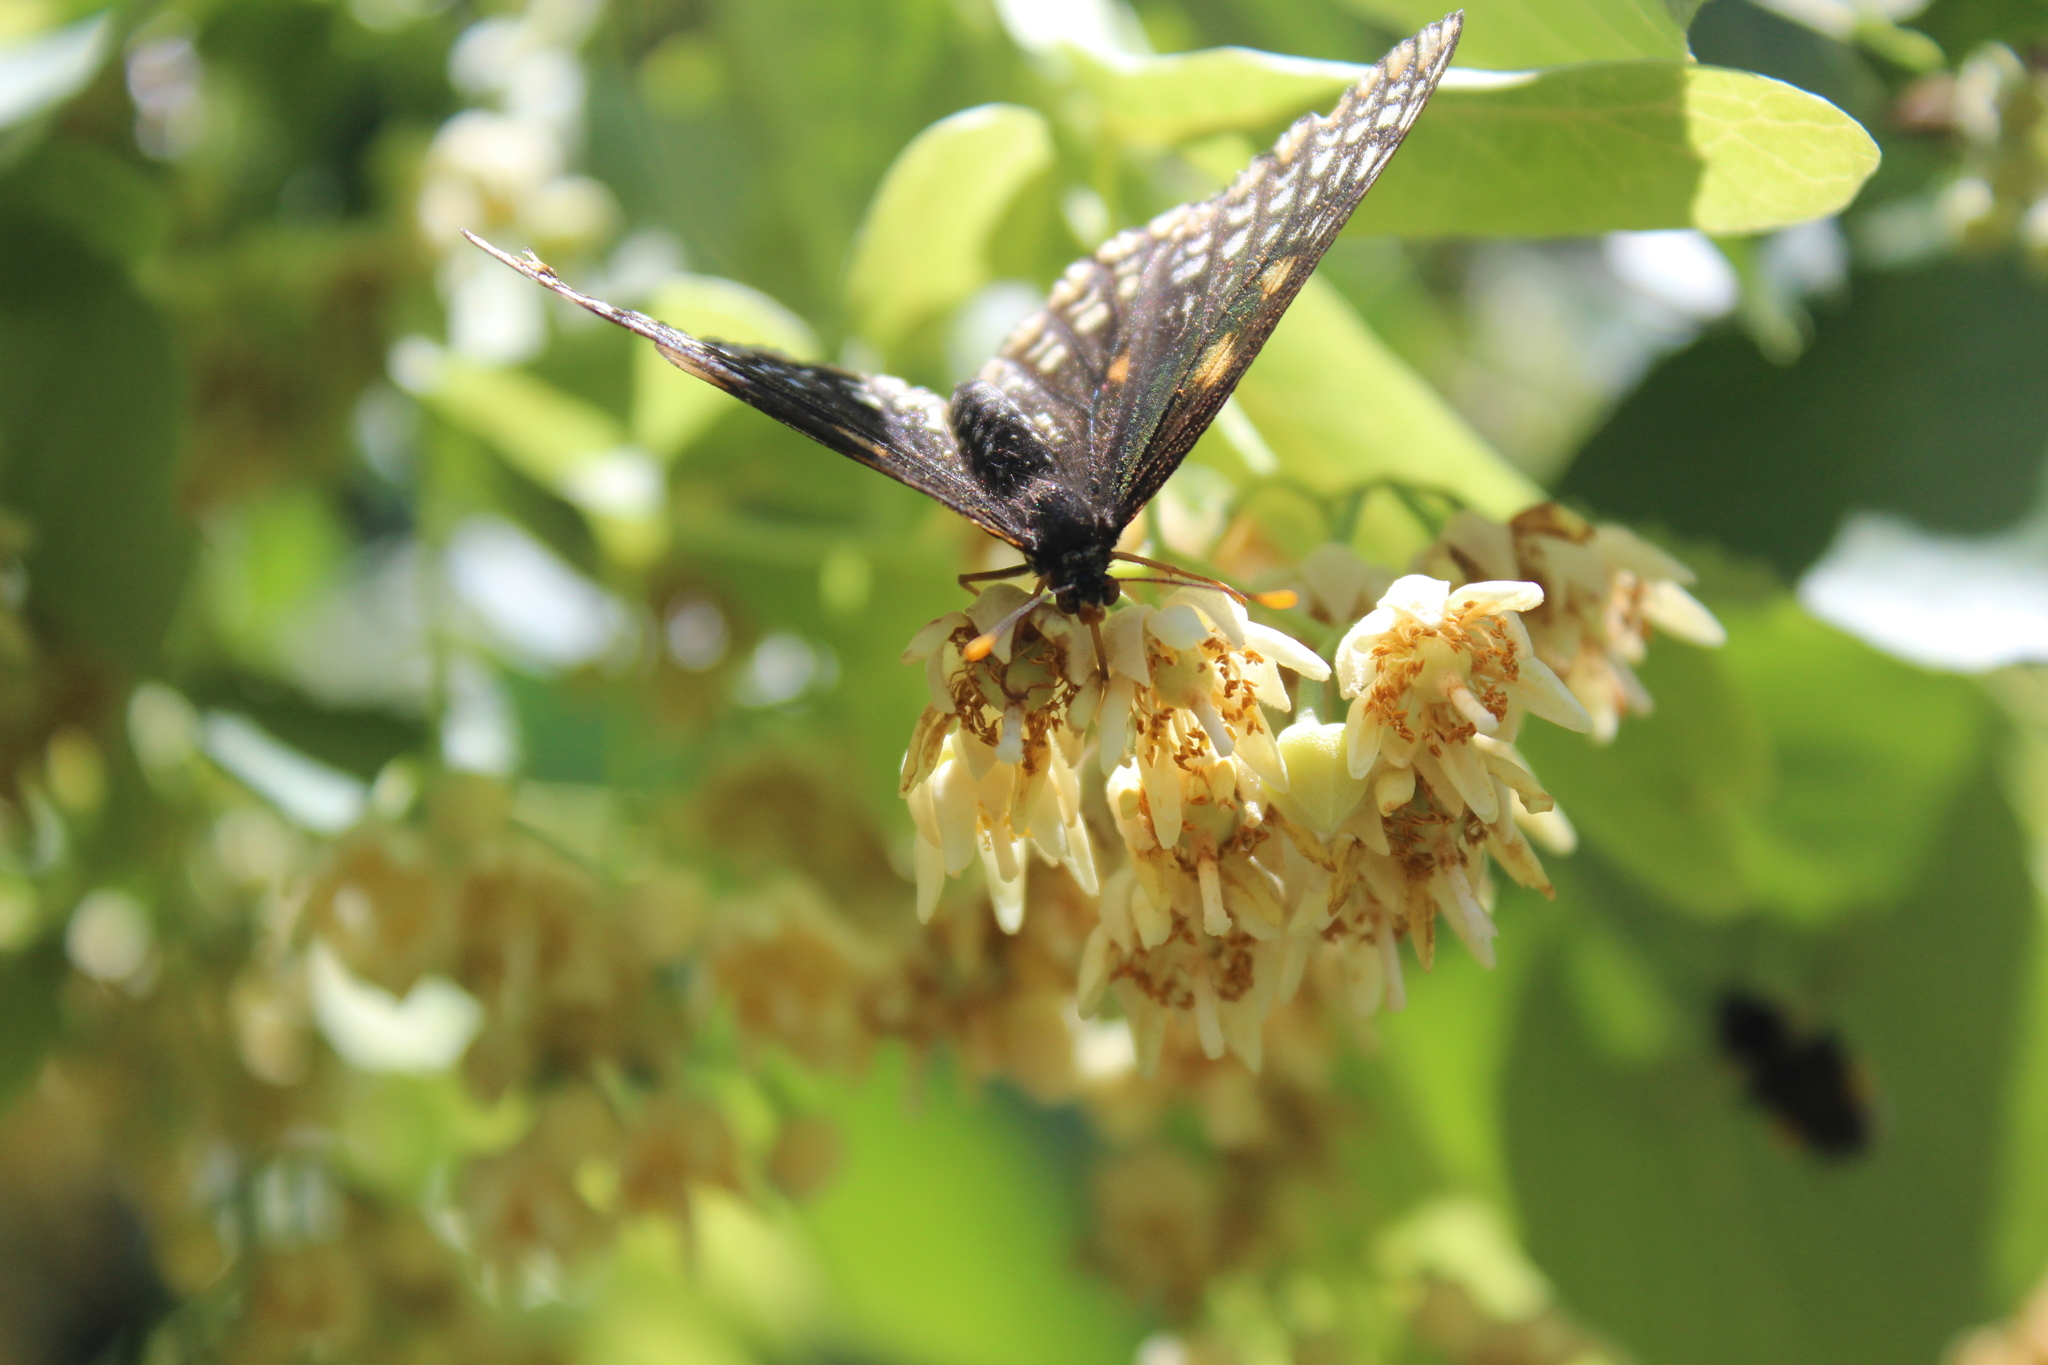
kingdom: Animalia
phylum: Arthropoda
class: Insecta
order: Lepidoptera
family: Nymphalidae
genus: Euphydryas
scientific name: Euphydryas phaeton
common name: Baltimore checkerspot
